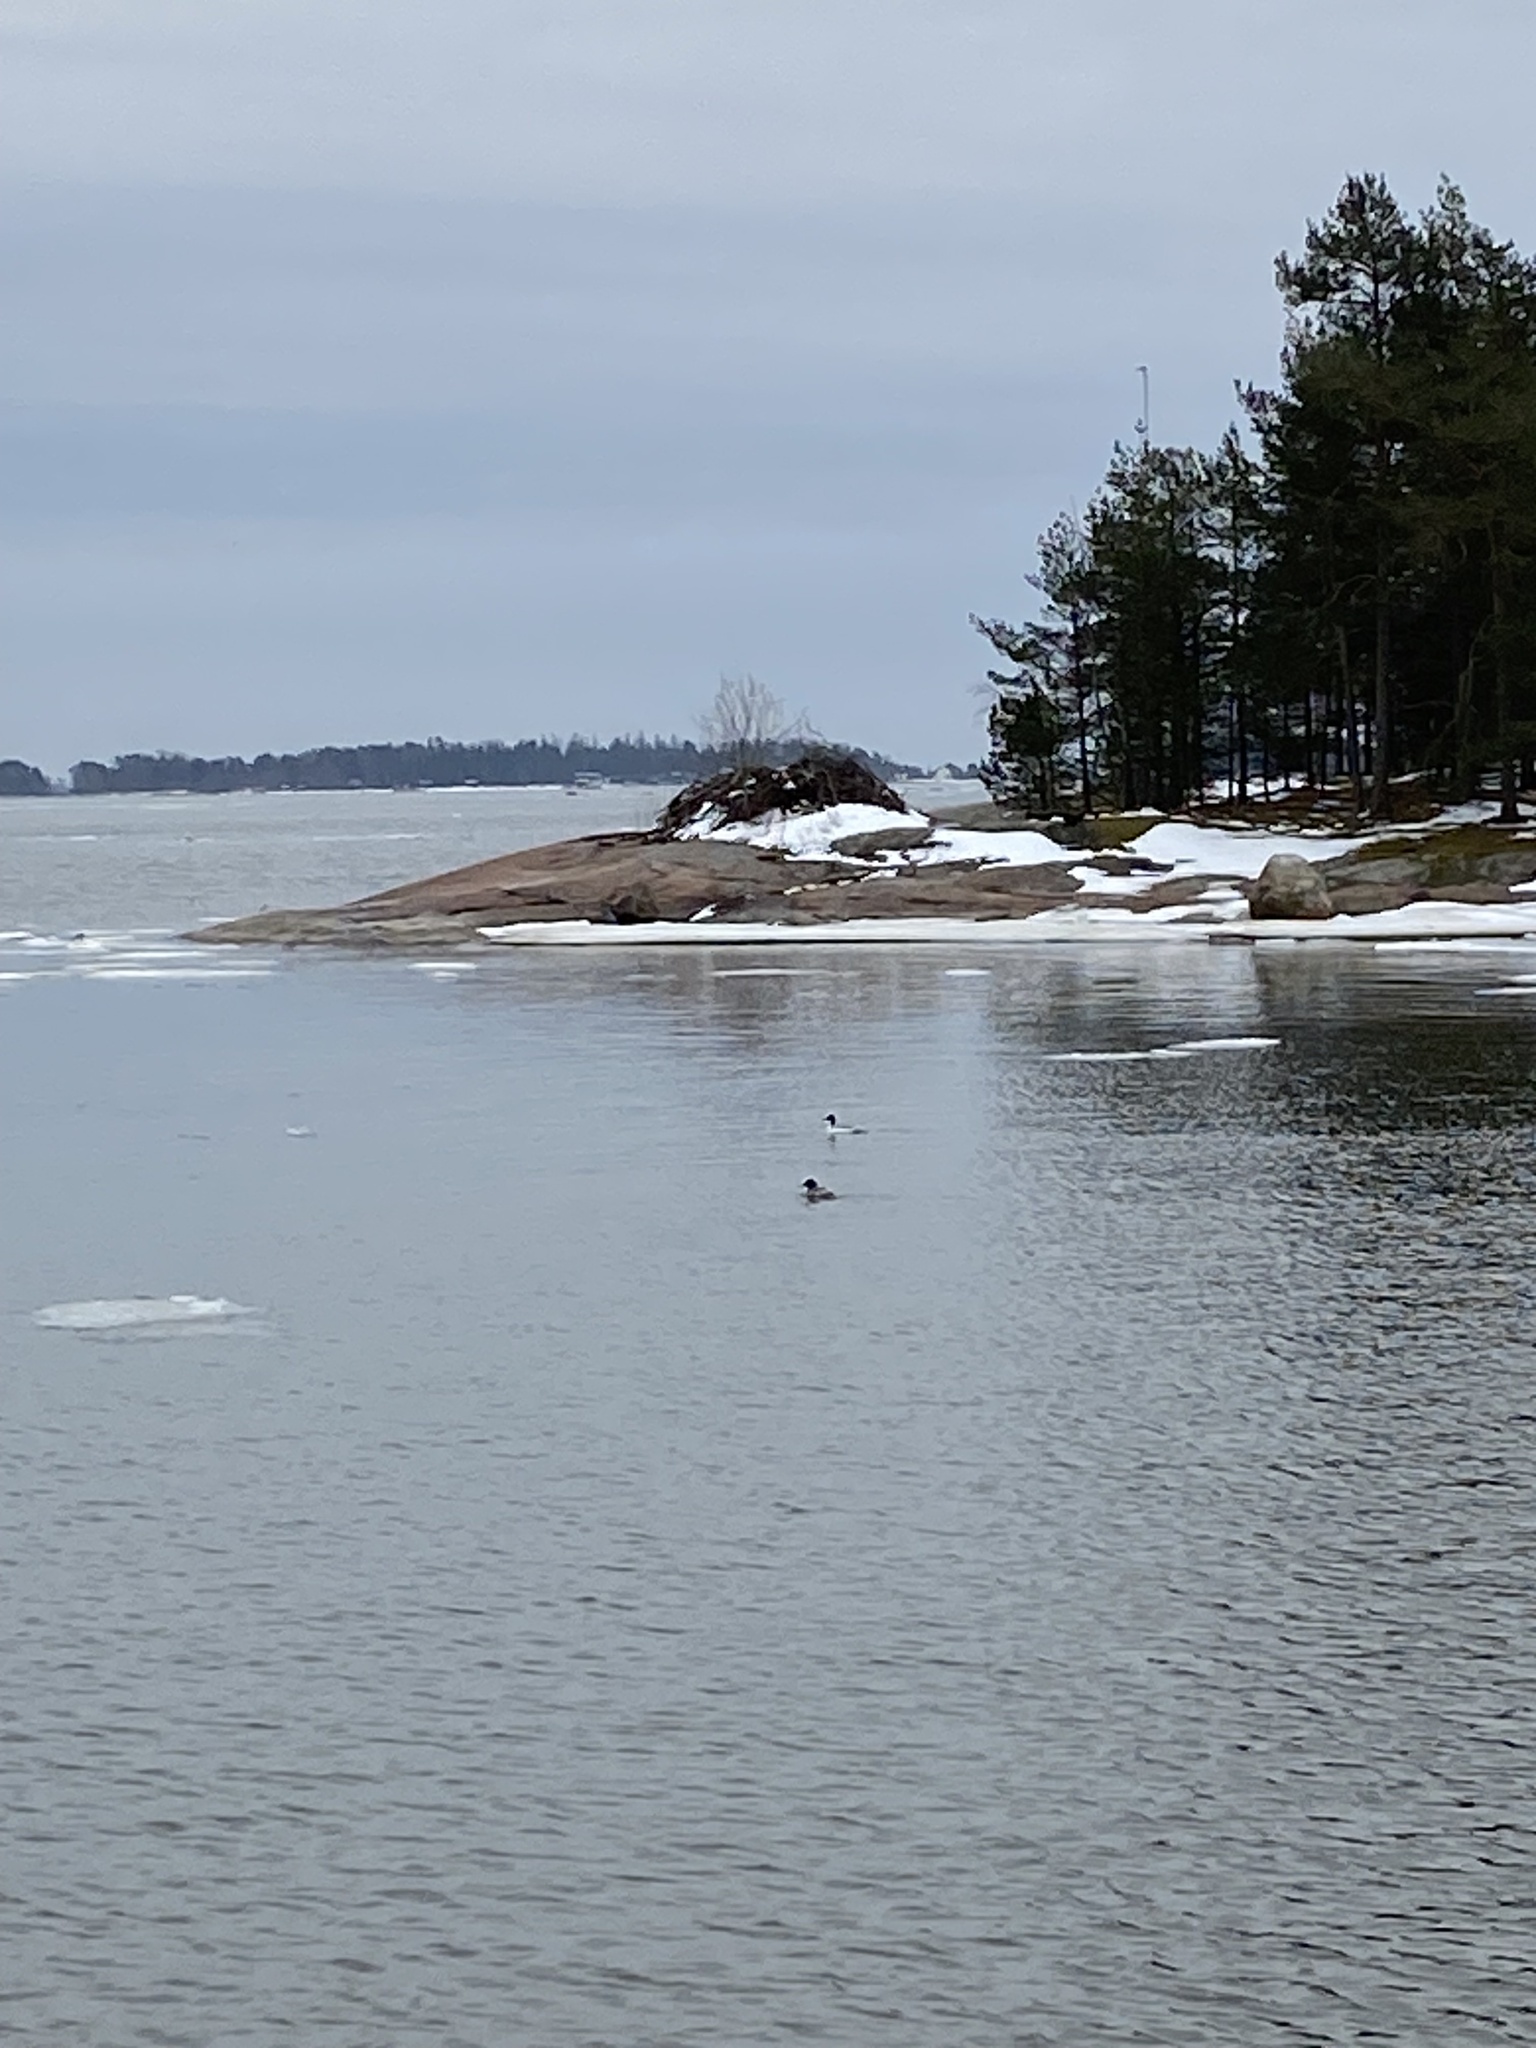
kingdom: Animalia
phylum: Chordata
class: Aves
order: Anseriformes
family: Anatidae
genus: Mergus
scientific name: Mergus merganser
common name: Common merganser
